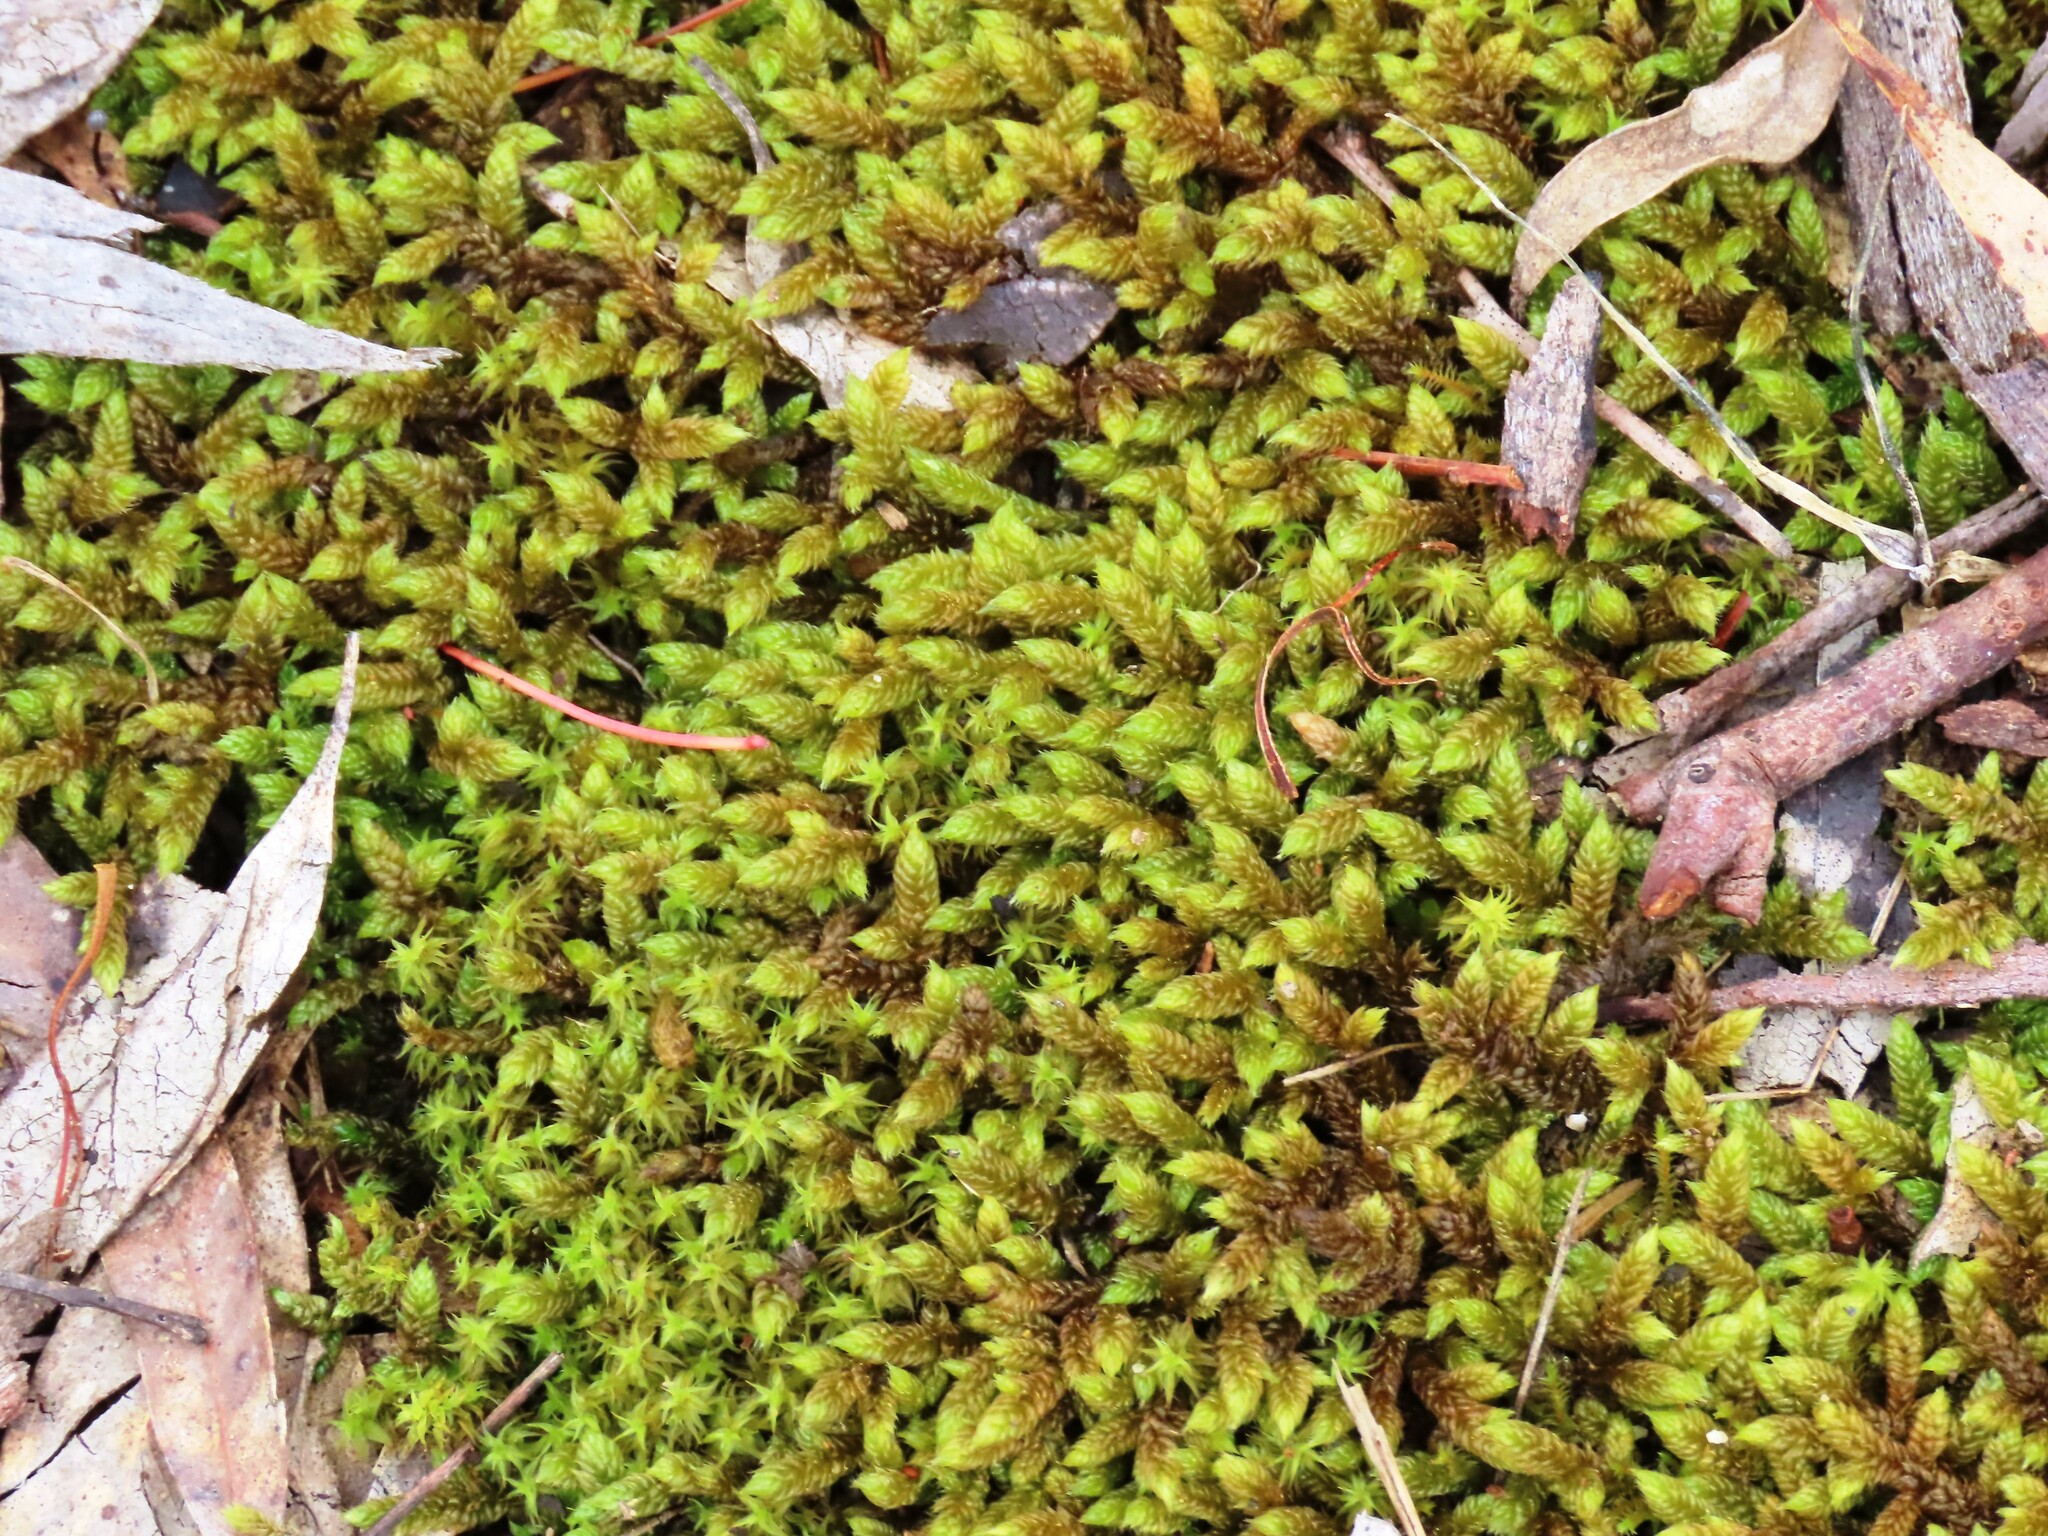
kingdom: Plantae
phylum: Bryophyta
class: Bryopsida
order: Hypnales
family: Hypnaceae
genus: Hypnum
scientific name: Hypnum cupressiforme
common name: Cypress-leaved plait-moss
